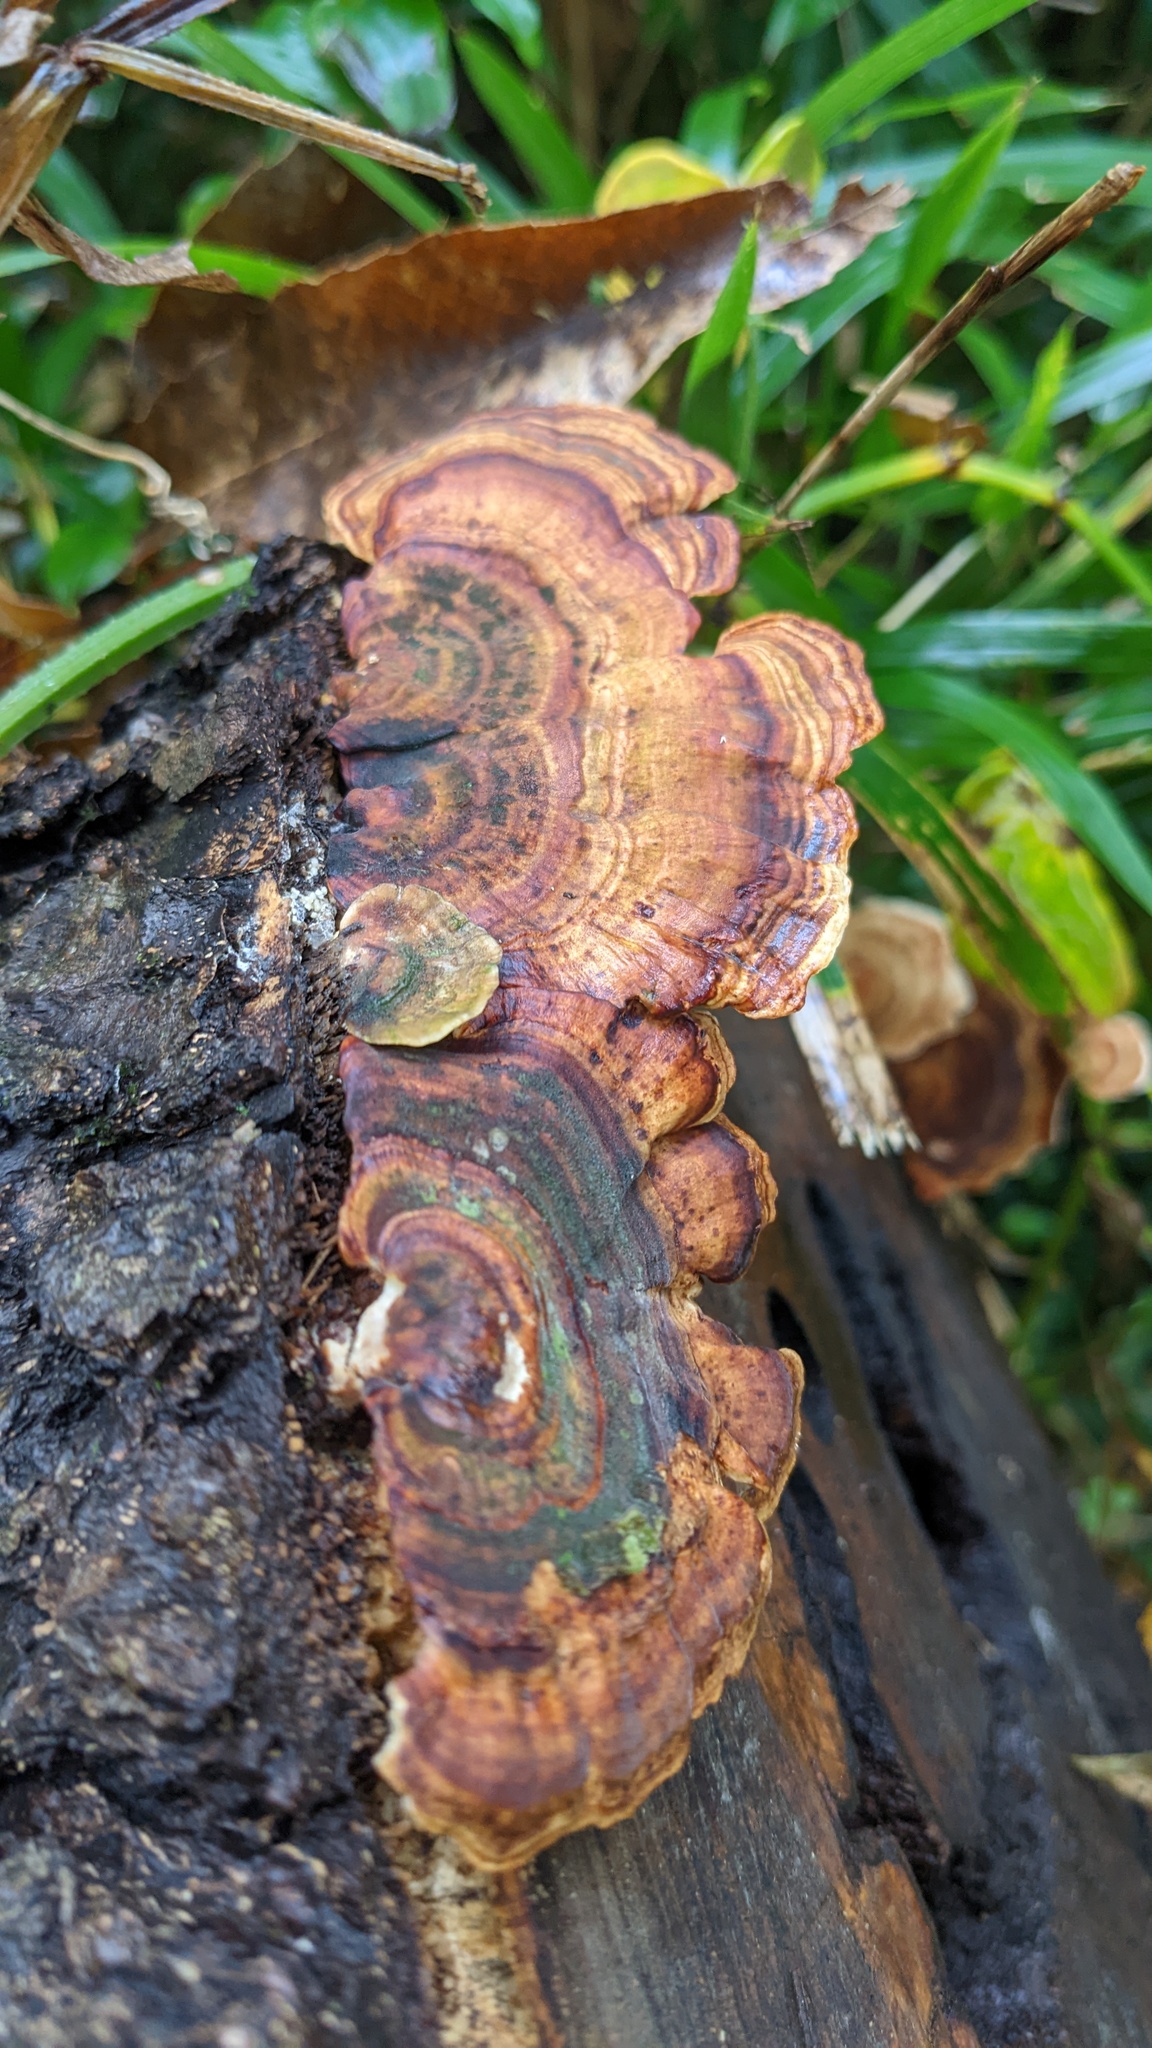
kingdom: Fungi
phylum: Basidiomycota
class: Agaricomycetes
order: Polyporales
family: Polyporaceae
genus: Microporus
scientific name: Microporus affinis
